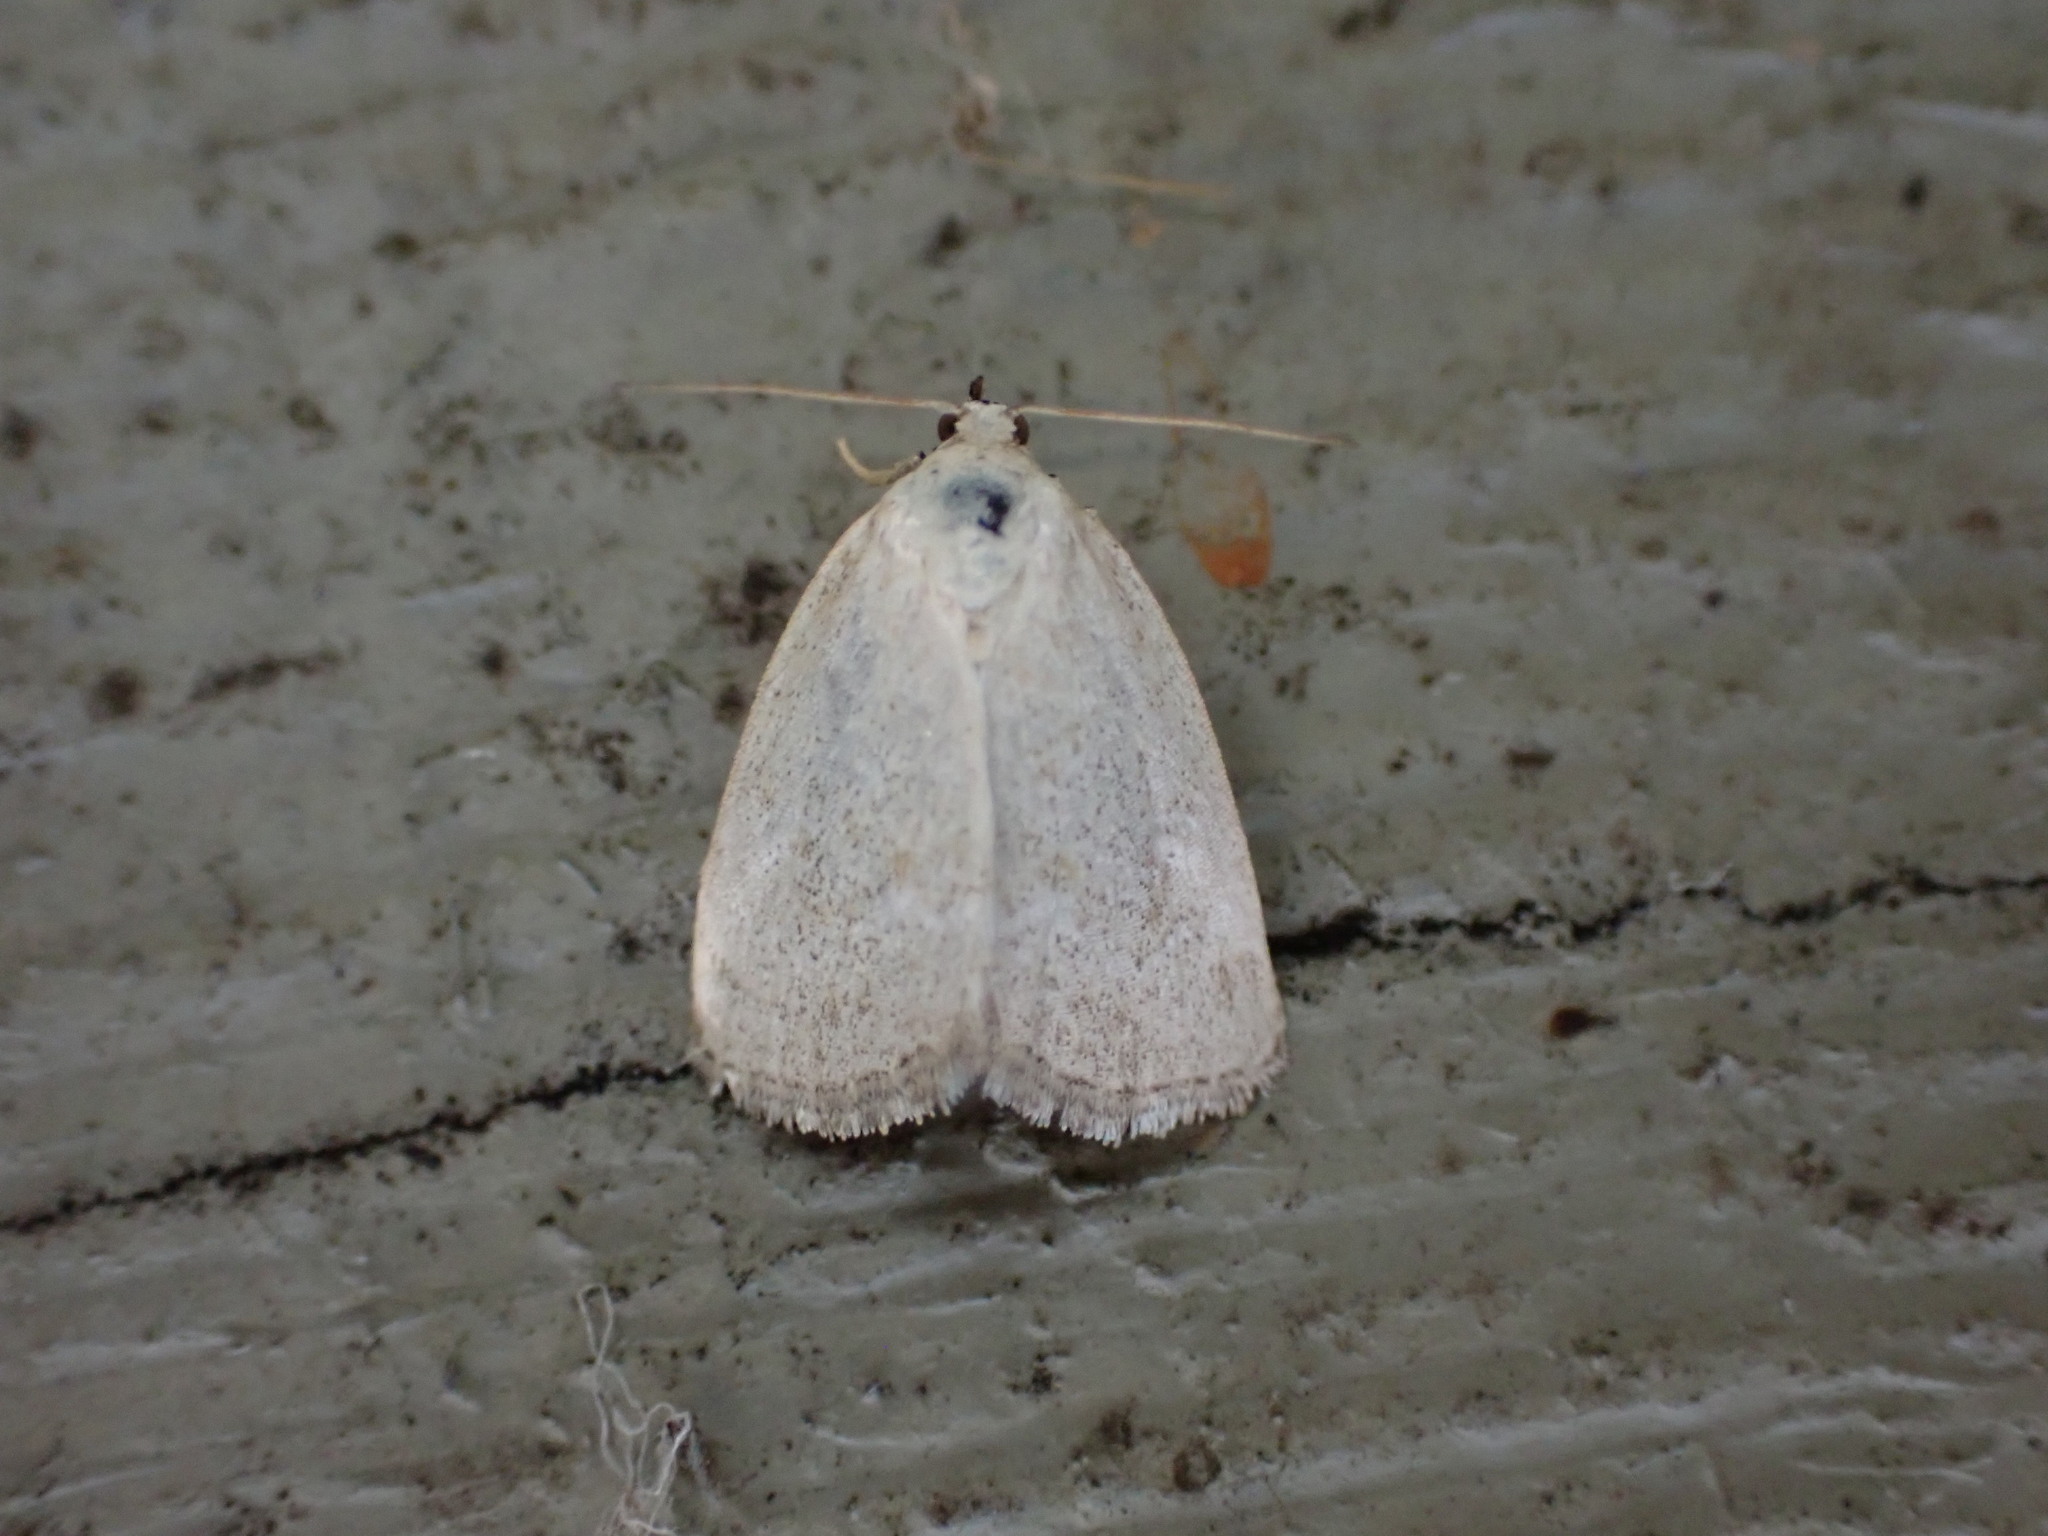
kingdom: Animalia
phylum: Arthropoda
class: Insecta
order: Lepidoptera
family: Noctuidae
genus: Protodeltote
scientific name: Protodeltote albidula
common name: Pale glyph
